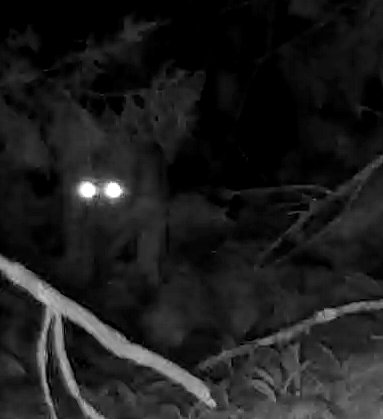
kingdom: Animalia
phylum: Chordata
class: Mammalia
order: Carnivora
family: Felidae
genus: Lynx
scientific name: Lynx rufus
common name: Bobcat
